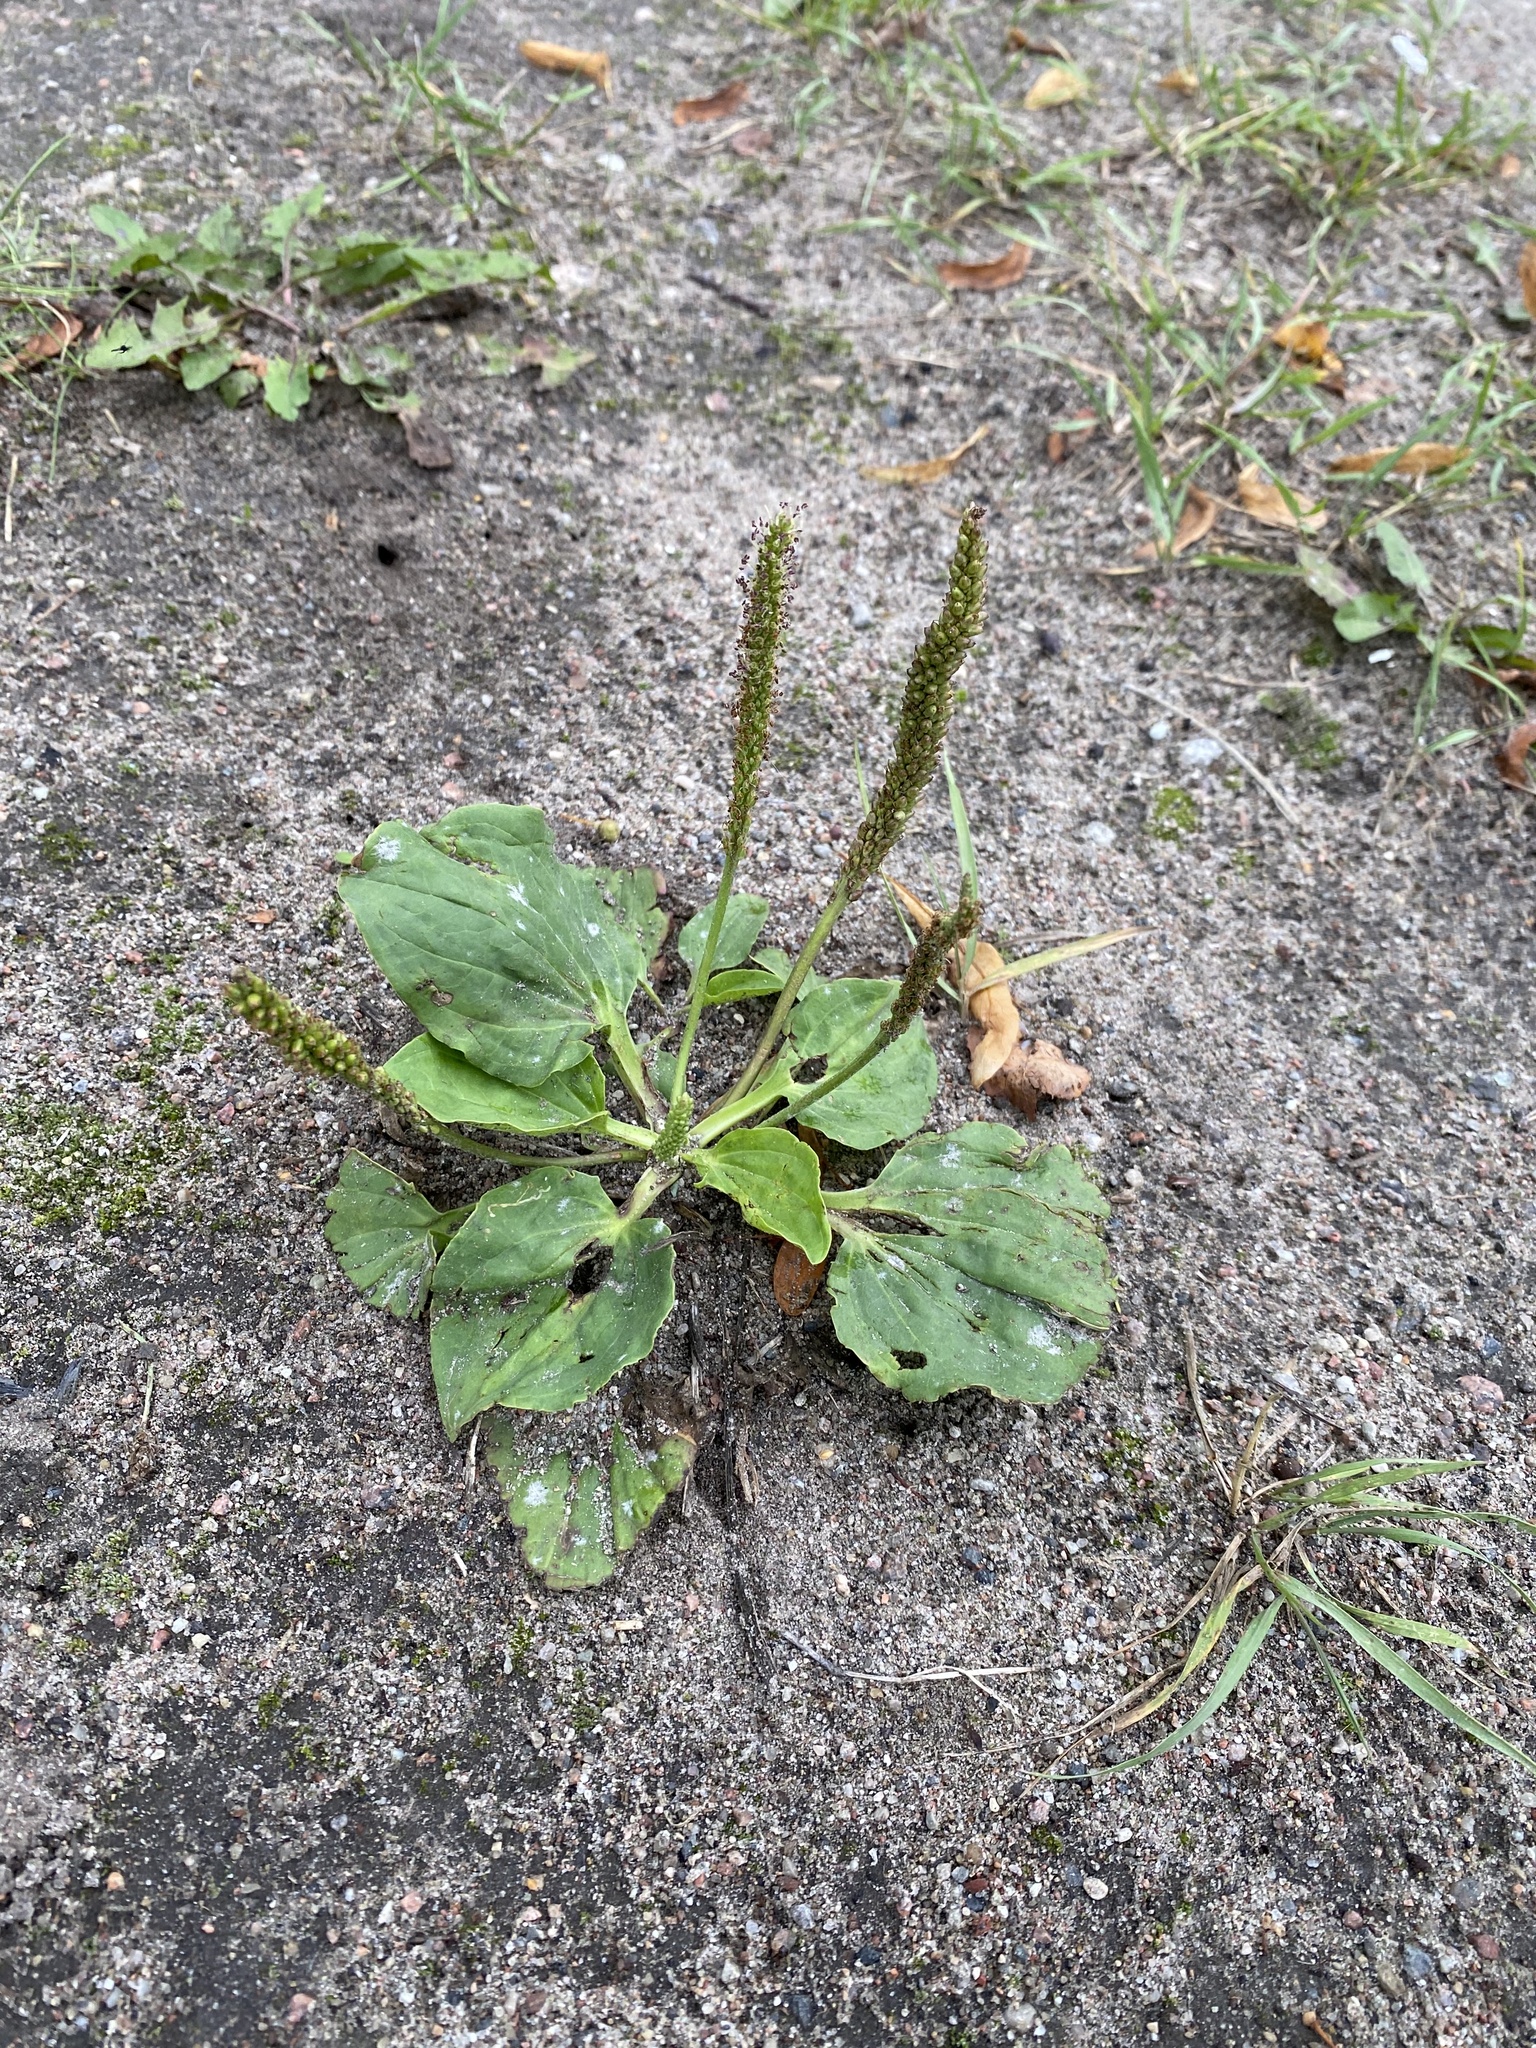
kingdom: Plantae
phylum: Tracheophyta
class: Magnoliopsida
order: Lamiales
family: Plantaginaceae
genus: Plantago
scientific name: Plantago major
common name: Common plantain
